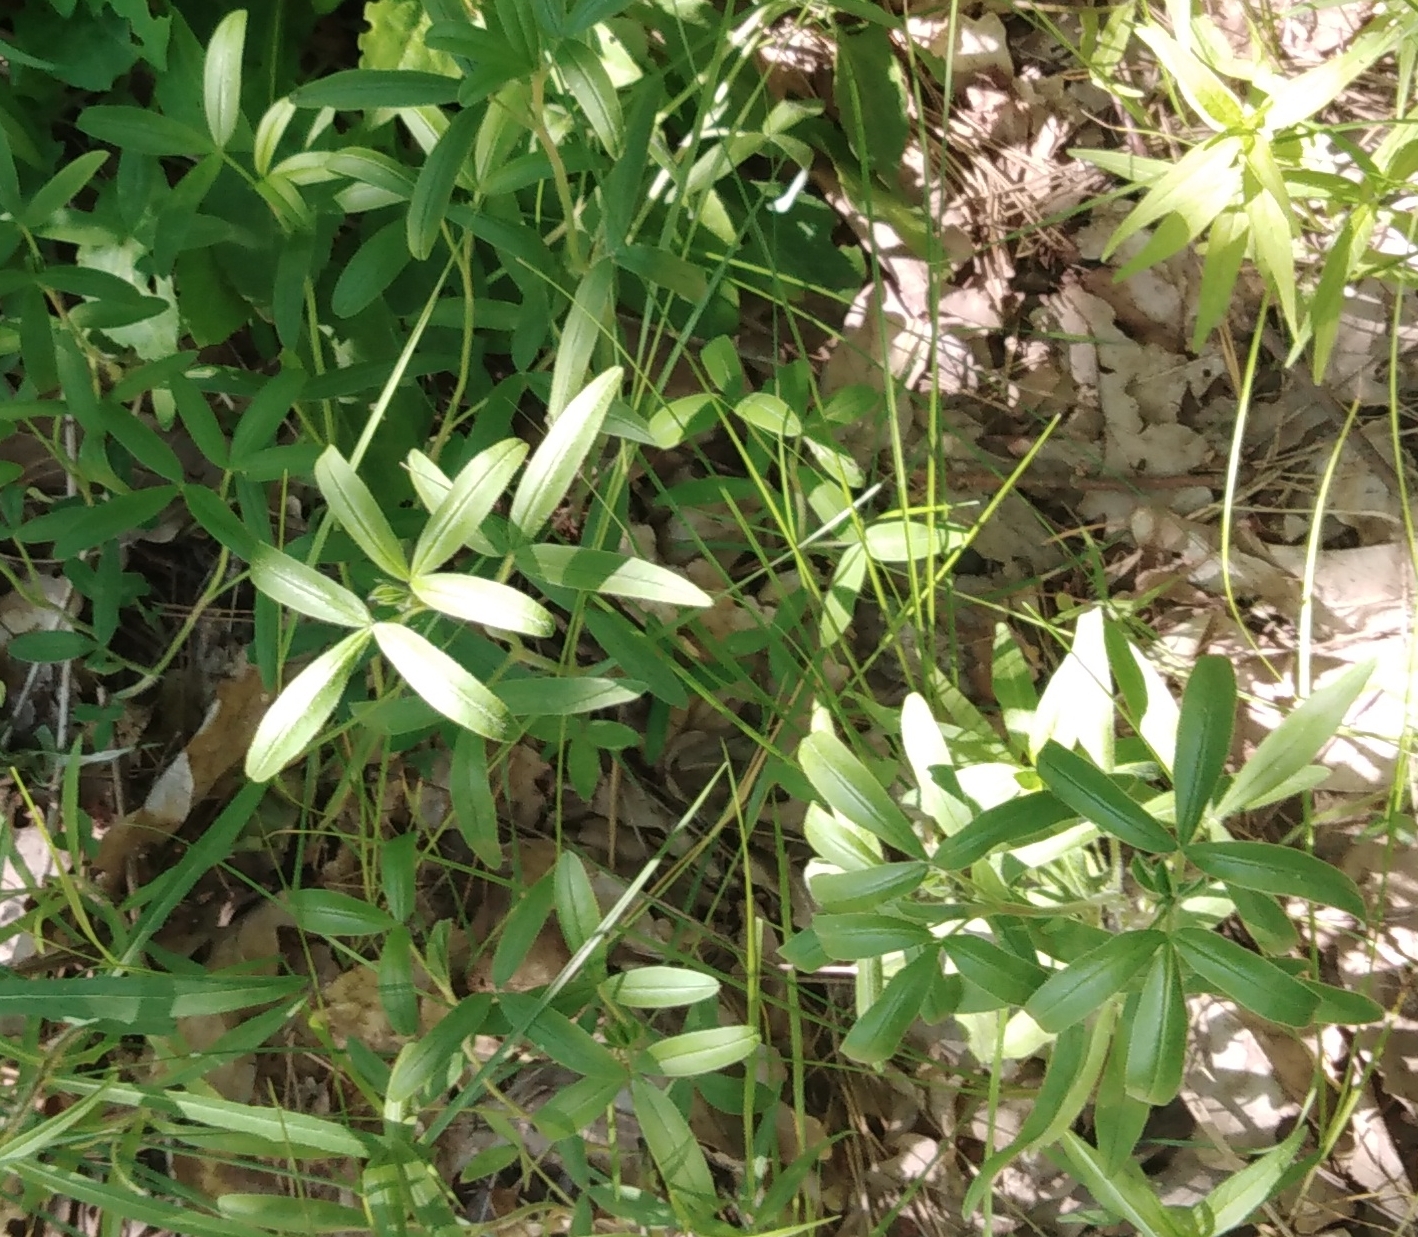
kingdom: Plantae
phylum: Tracheophyta
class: Magnoliopsida
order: Fabales
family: Fabaceae
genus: Trifolium
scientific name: Trifolium alpestre
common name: Owl-head clover
